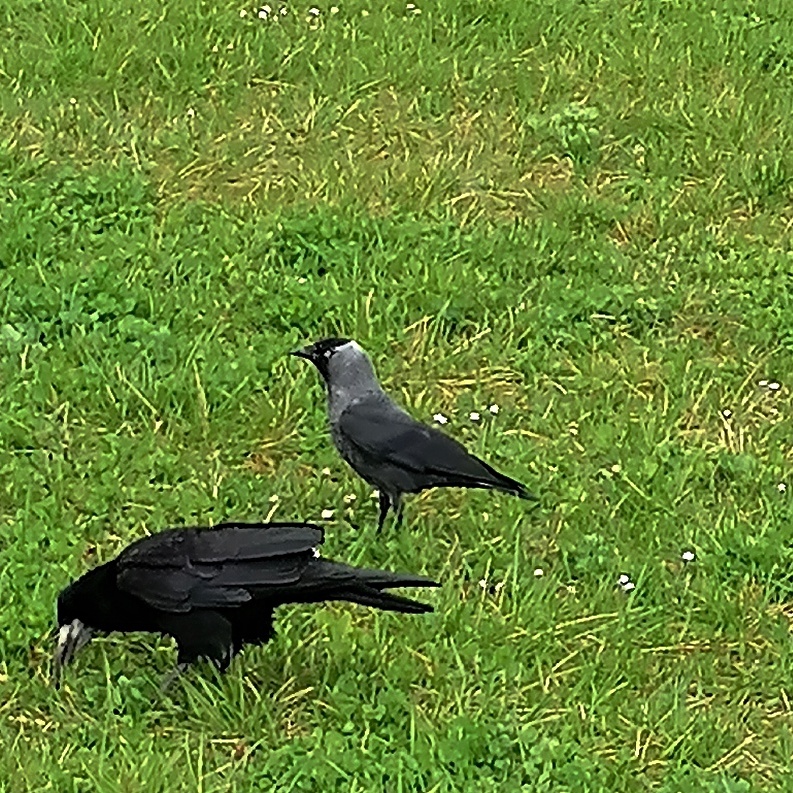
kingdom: Animalia
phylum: Chordata
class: Aves
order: Passeriformes
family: Corvidae
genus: Coloeus
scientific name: Coloeus monedula
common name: Western jackdaw
